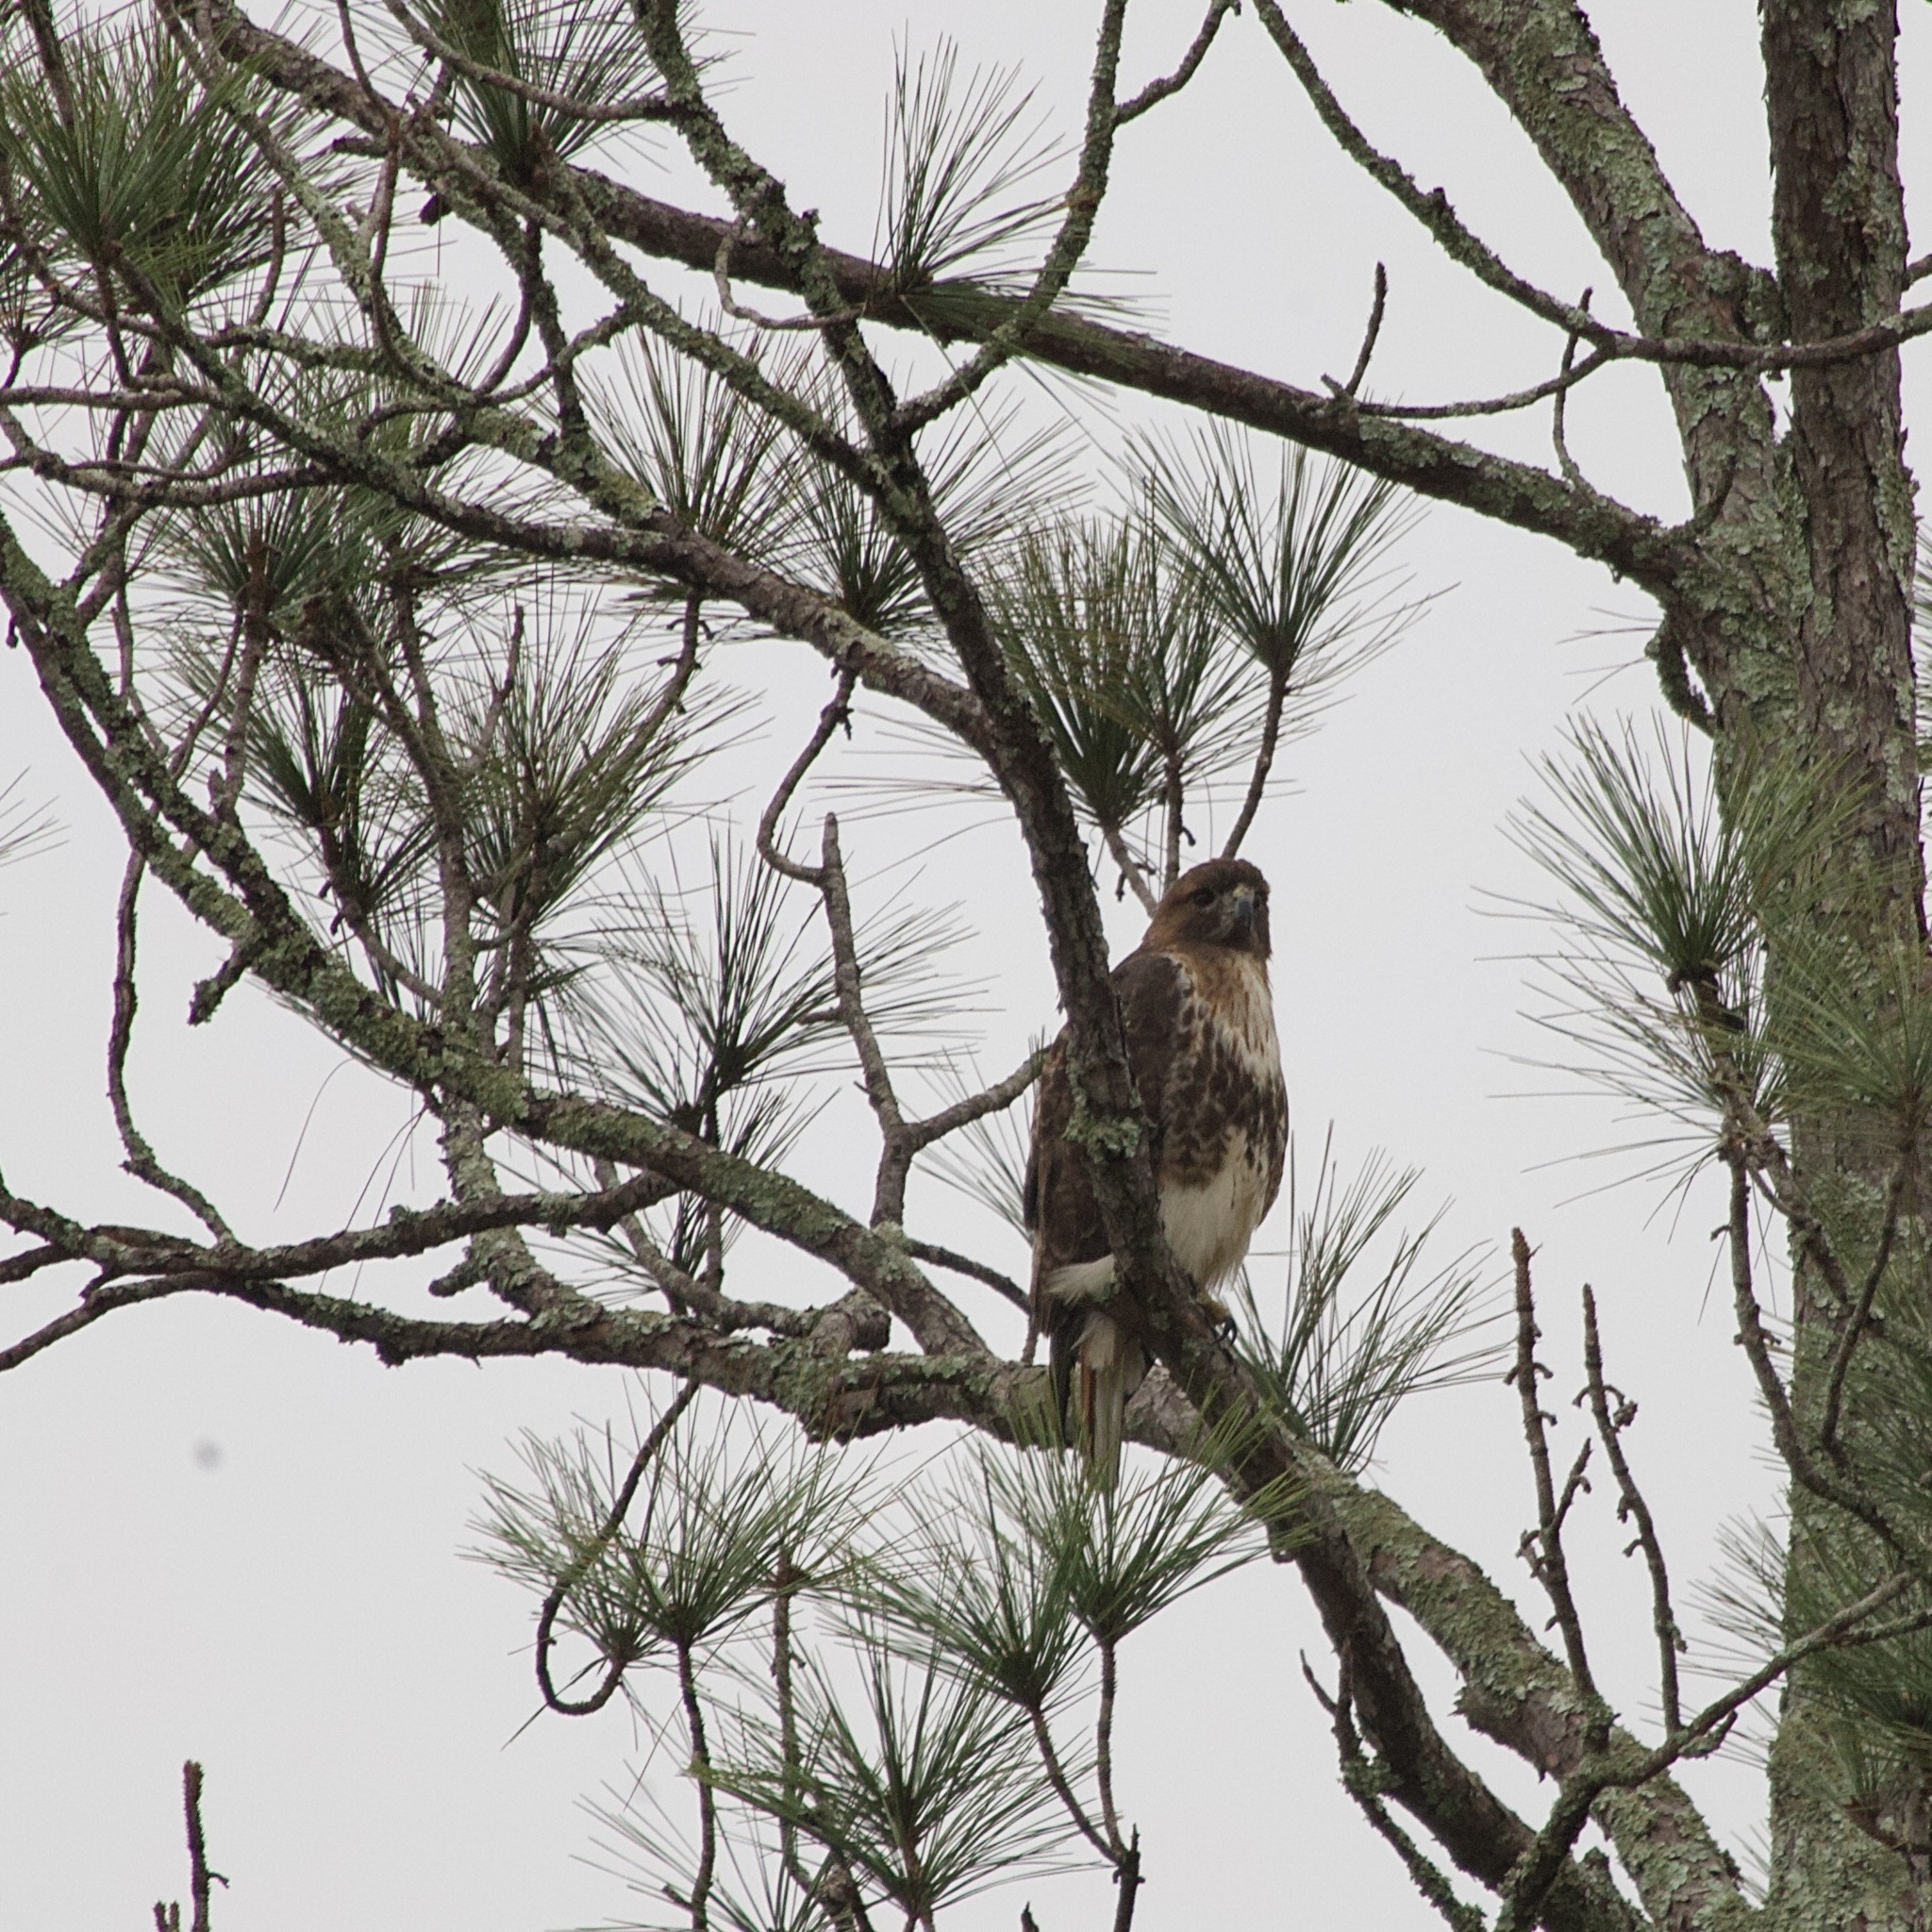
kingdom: Animalia
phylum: Chordata
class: Aves
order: Accipitriformes
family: Accipitridae
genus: Buteo
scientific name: Buteo jamaicensis
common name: Red-tailed hawk
